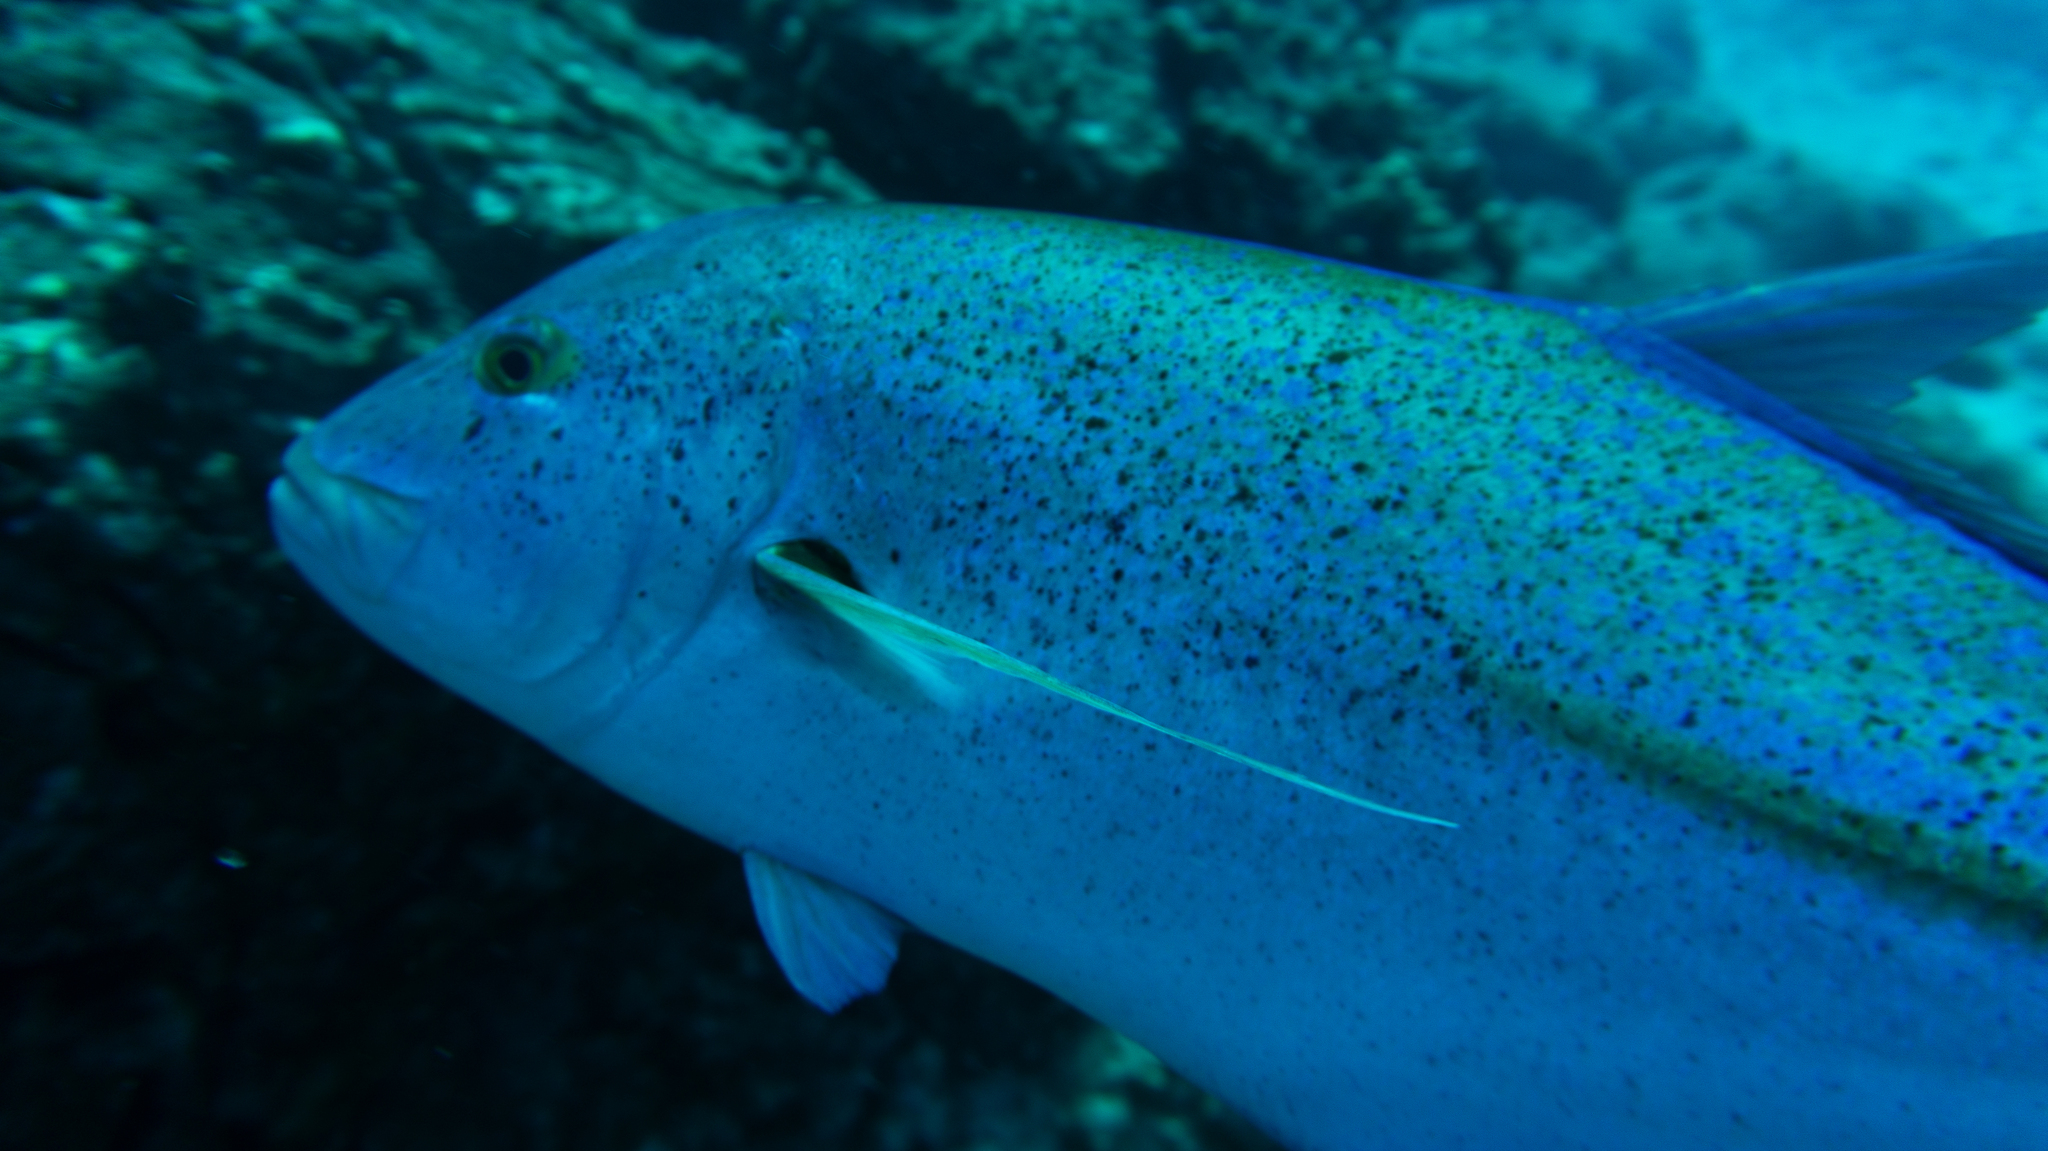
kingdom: Animalia
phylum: Chordata
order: Perciformes
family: Carangidae
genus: Caranx
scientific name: Caranx melampygus
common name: Bluefin trevally
